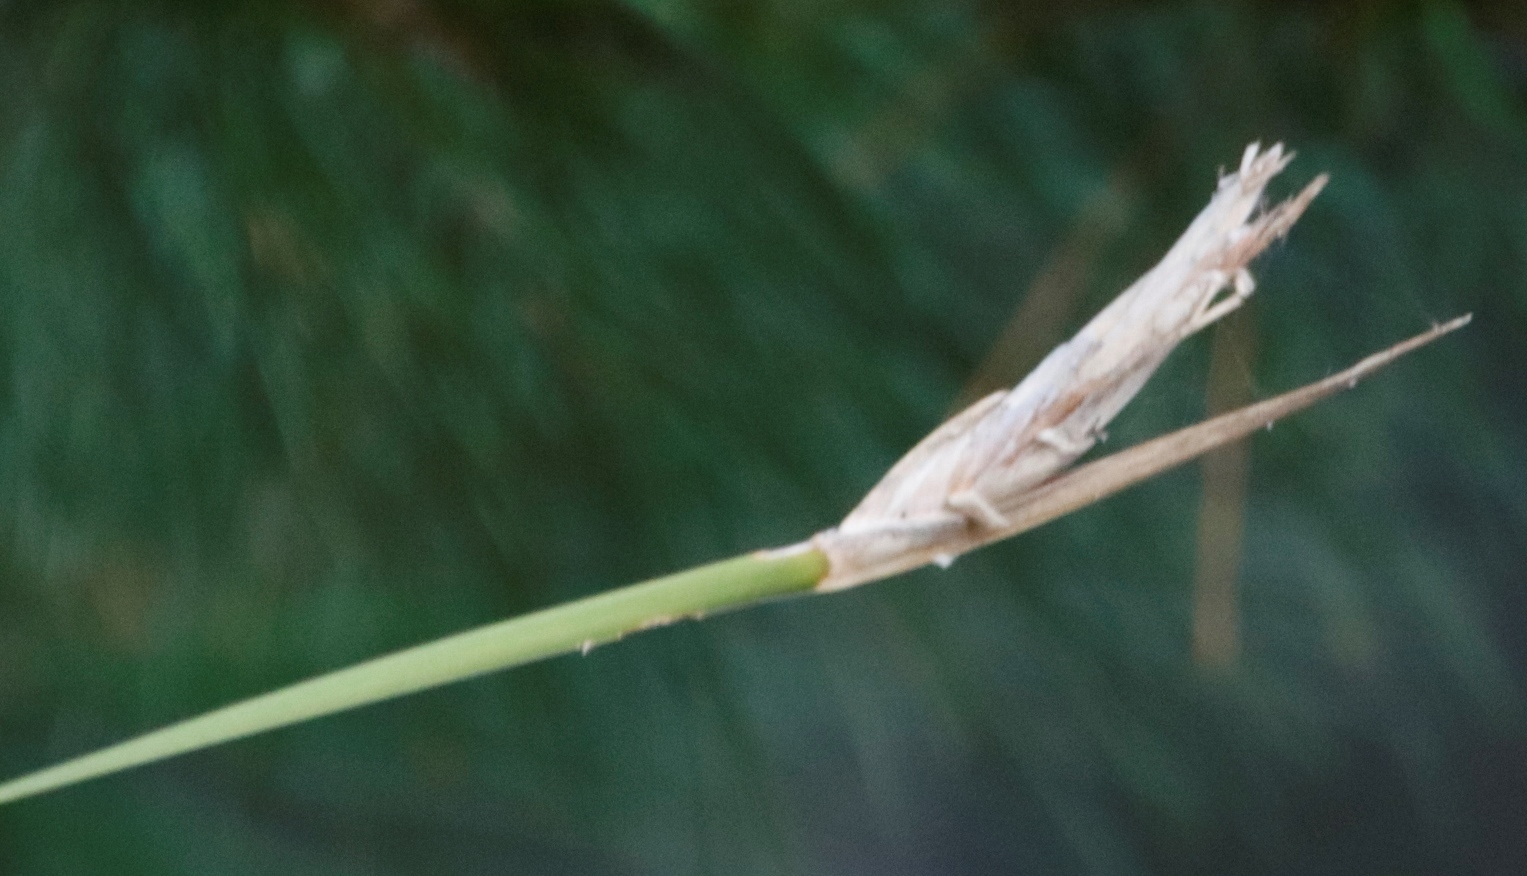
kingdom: Plantae
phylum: Tracheophyta
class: Liliopsida
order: Asparagales
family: Iridaceae
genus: Bobartia
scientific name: Bobartia gladiata
